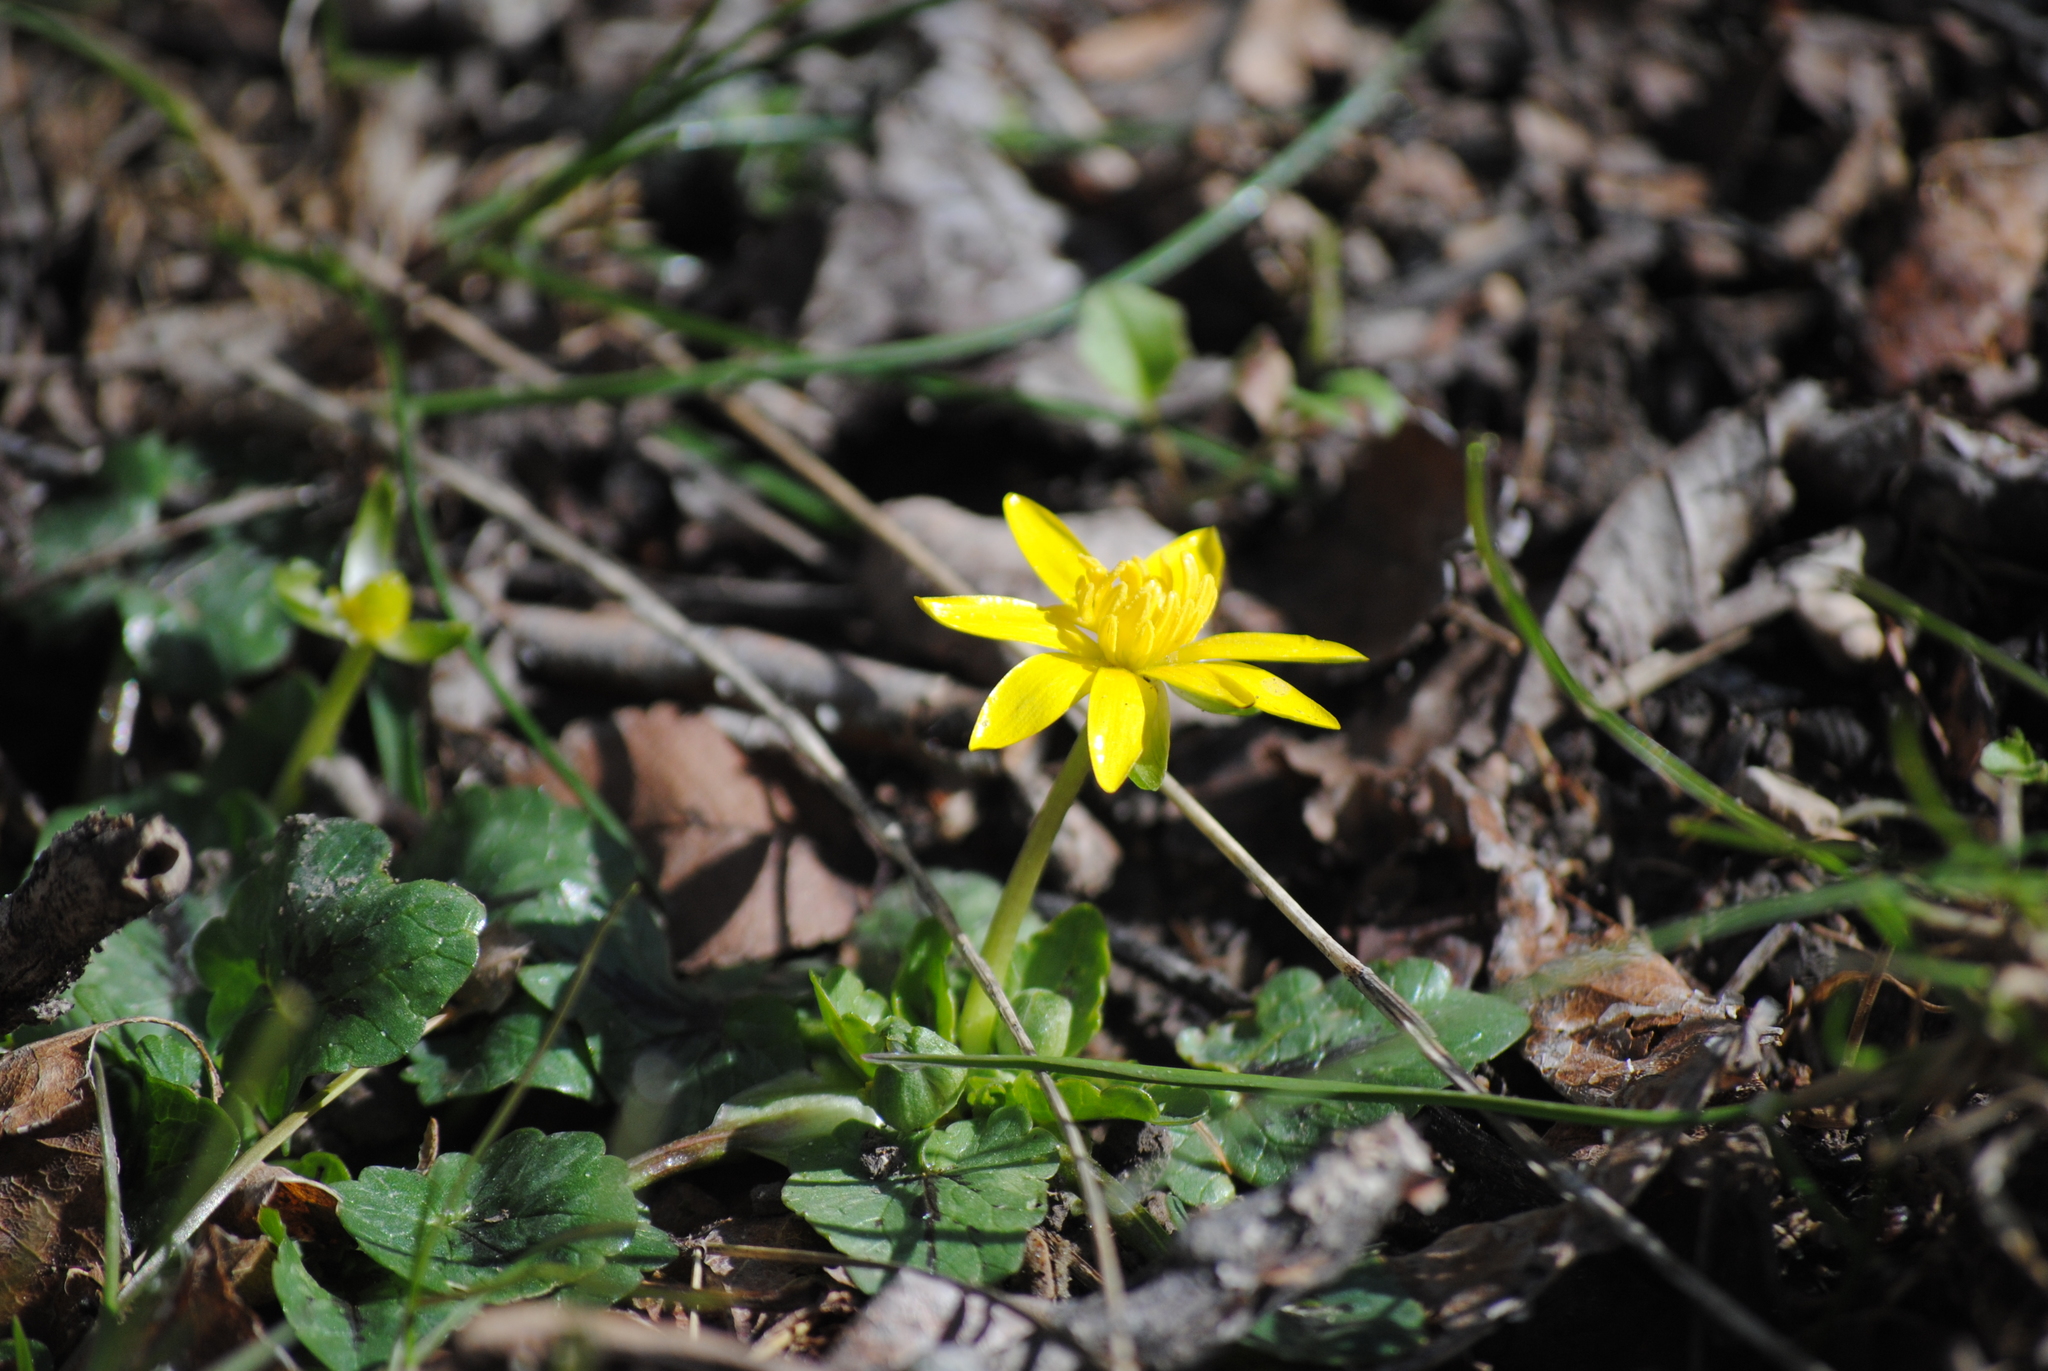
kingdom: Plantae
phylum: Tracheophyta
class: Magnoliopsida
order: Ranunculales
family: Ranunculaceae
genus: Ficaria
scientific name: Ficaria verna
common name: Lesser celandine
